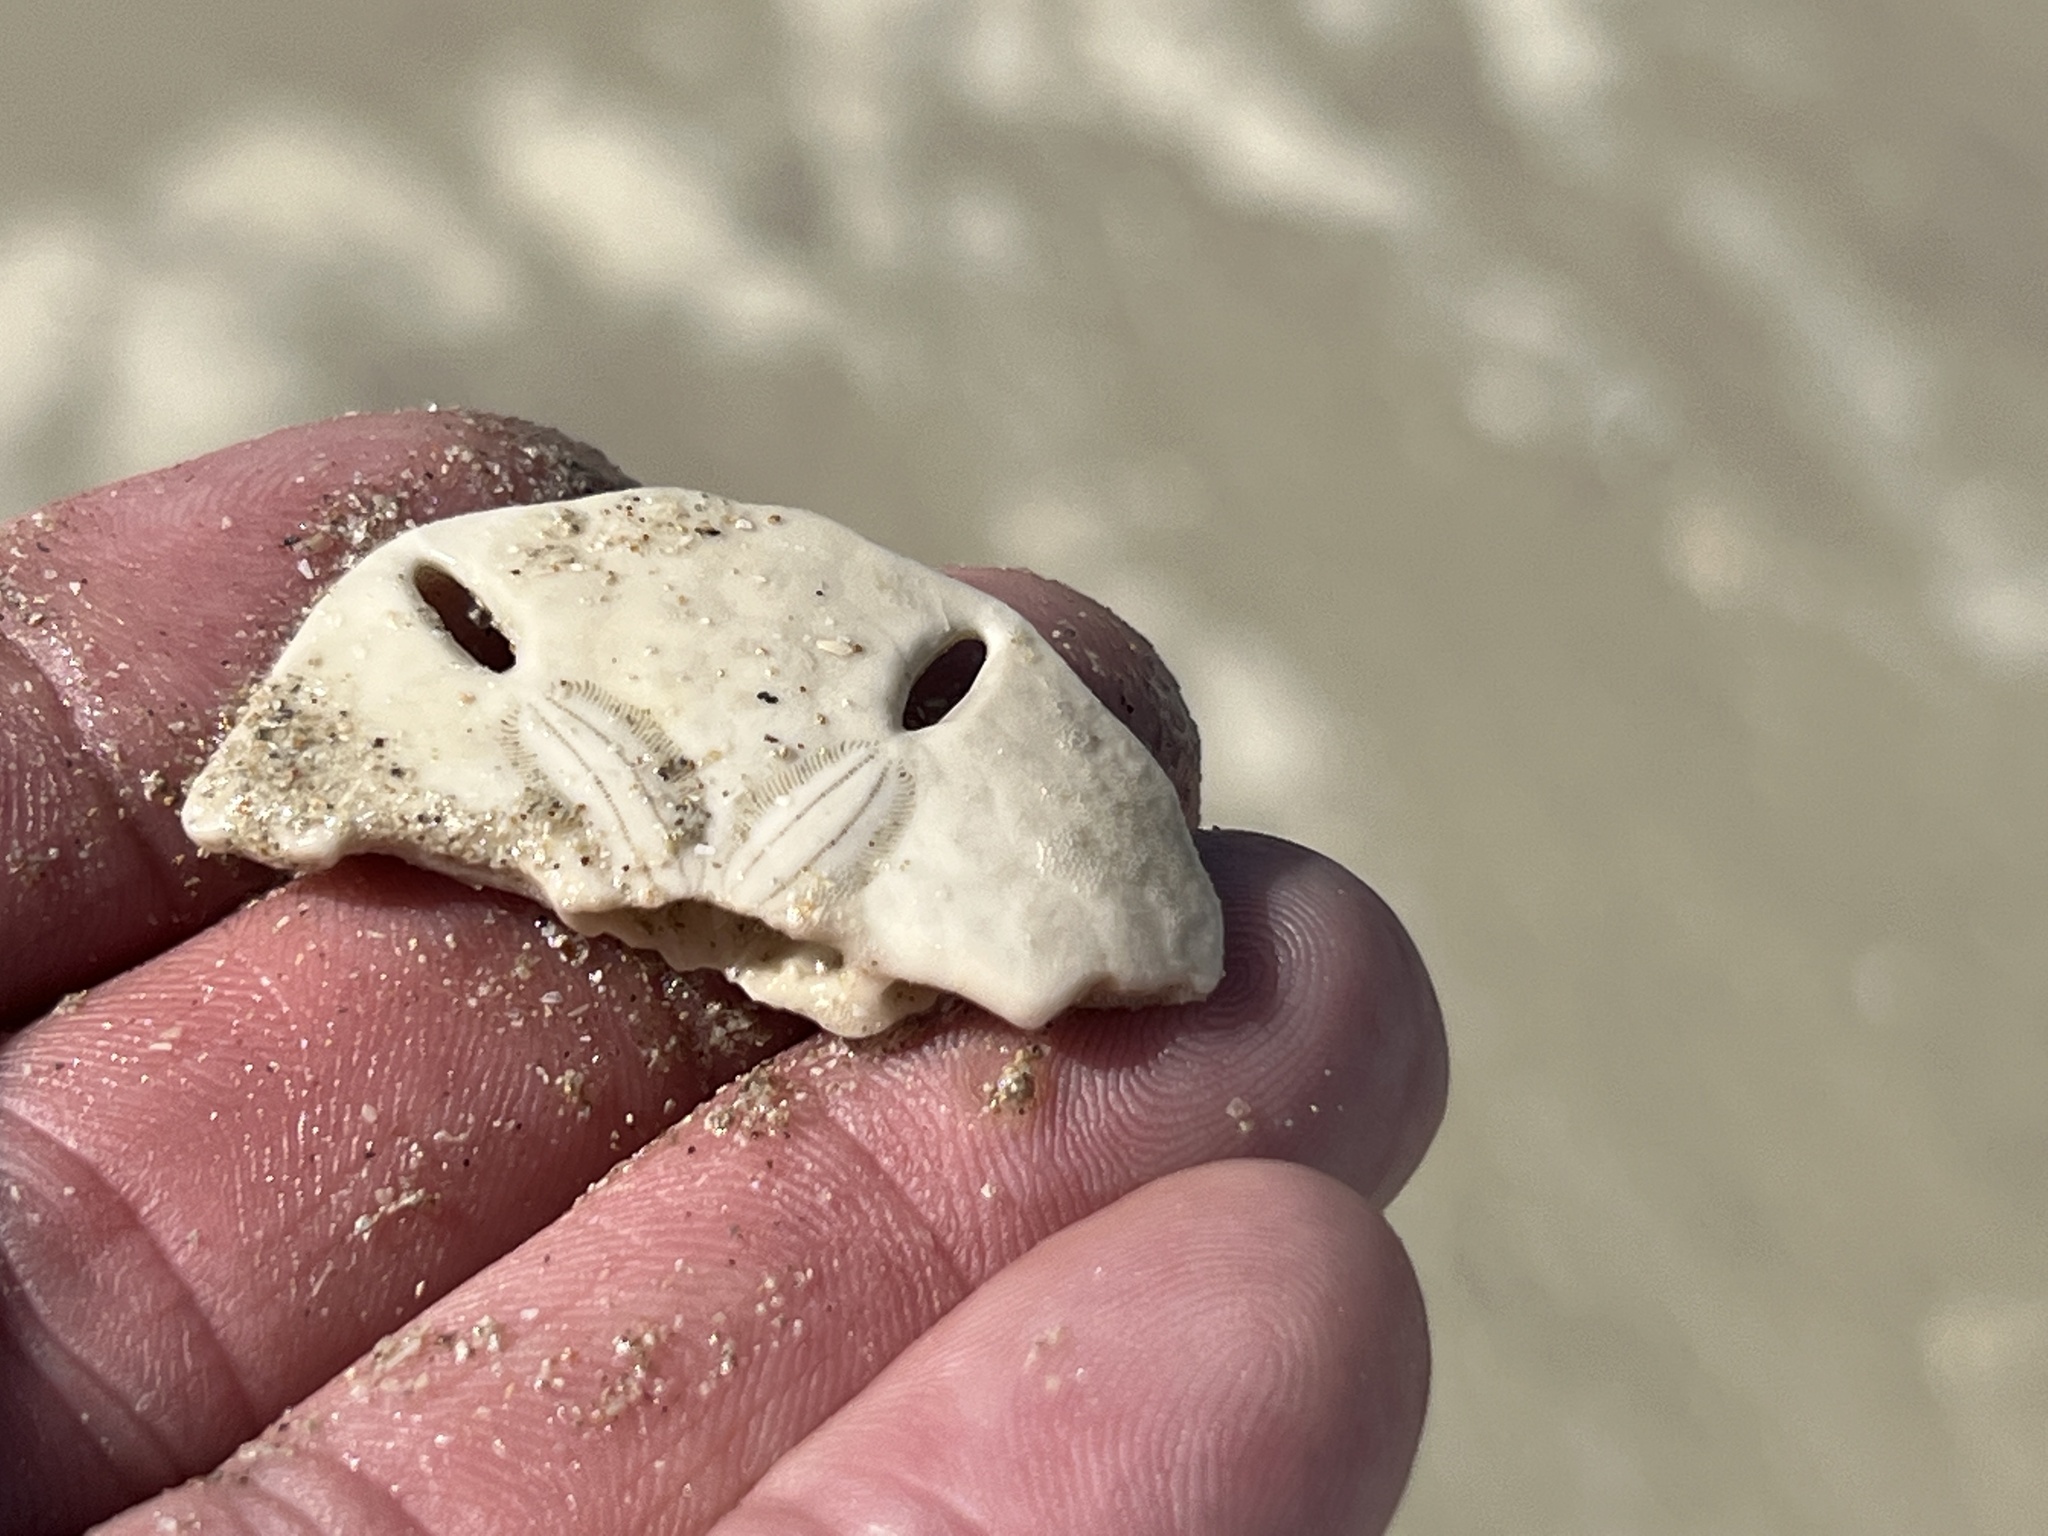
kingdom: Animalia
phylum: Echinodermata
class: Echinoidea
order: Echinolampadacea
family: Mellitidae
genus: Mellita
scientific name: Mellita quinquiesperforata
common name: Sand dollar
